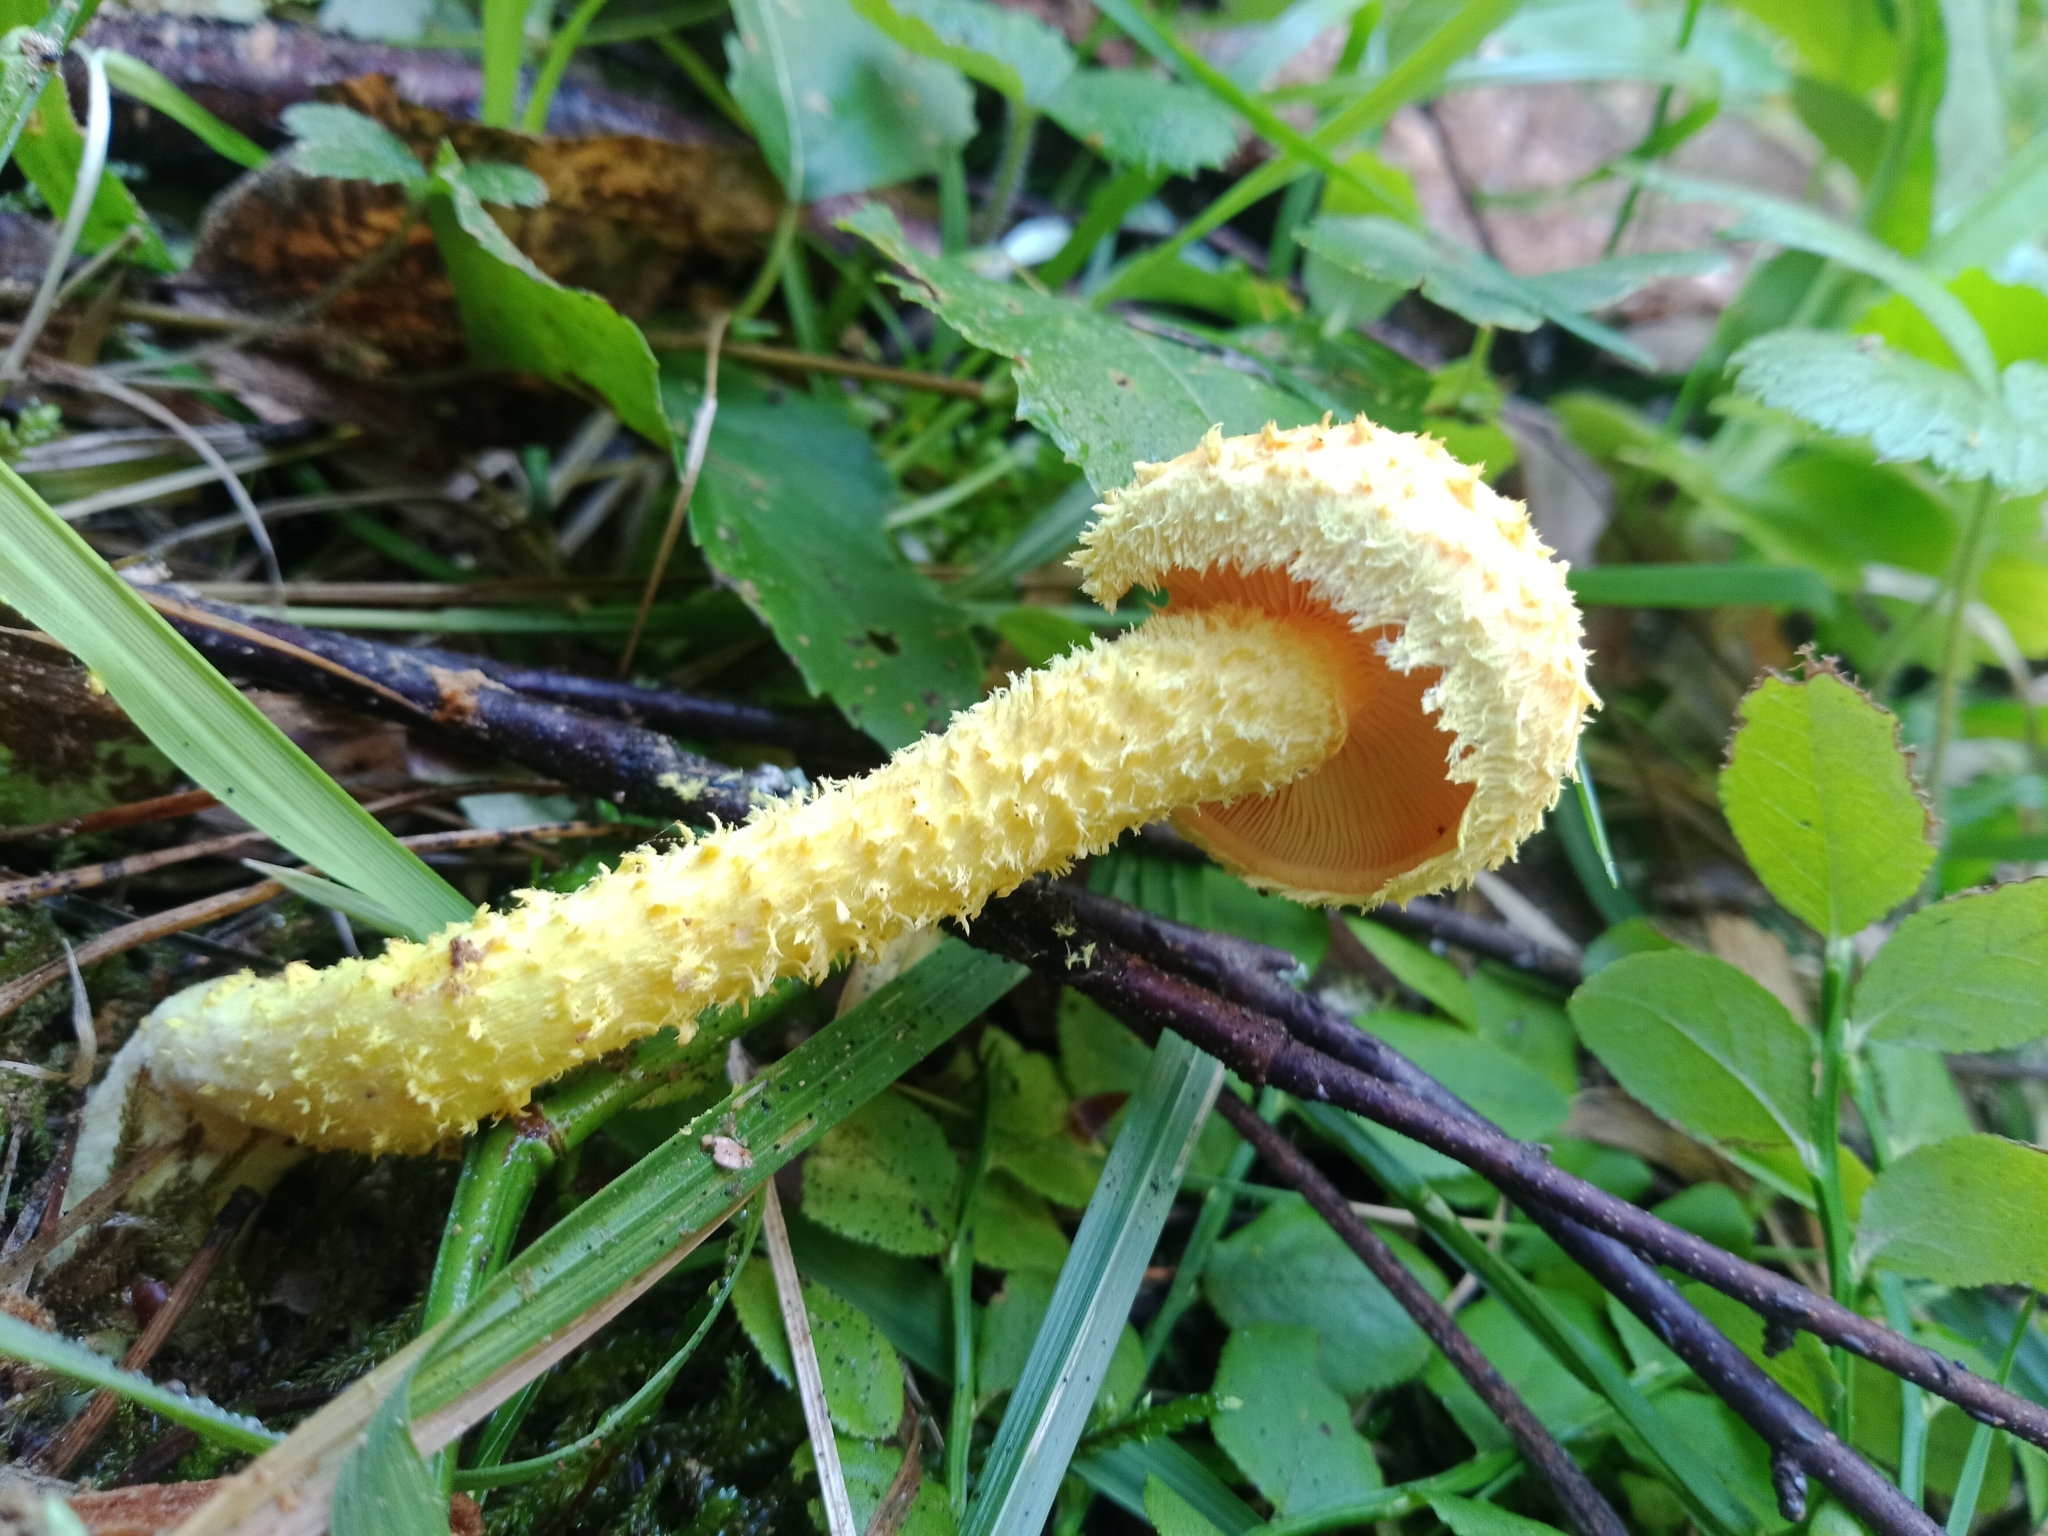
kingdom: Fungi
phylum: Basidiomycota
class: Agaricomycetes
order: Agaricales
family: Strophariaceae
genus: Pholiota
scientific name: Pholiota flammans
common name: Flaming scalycap
